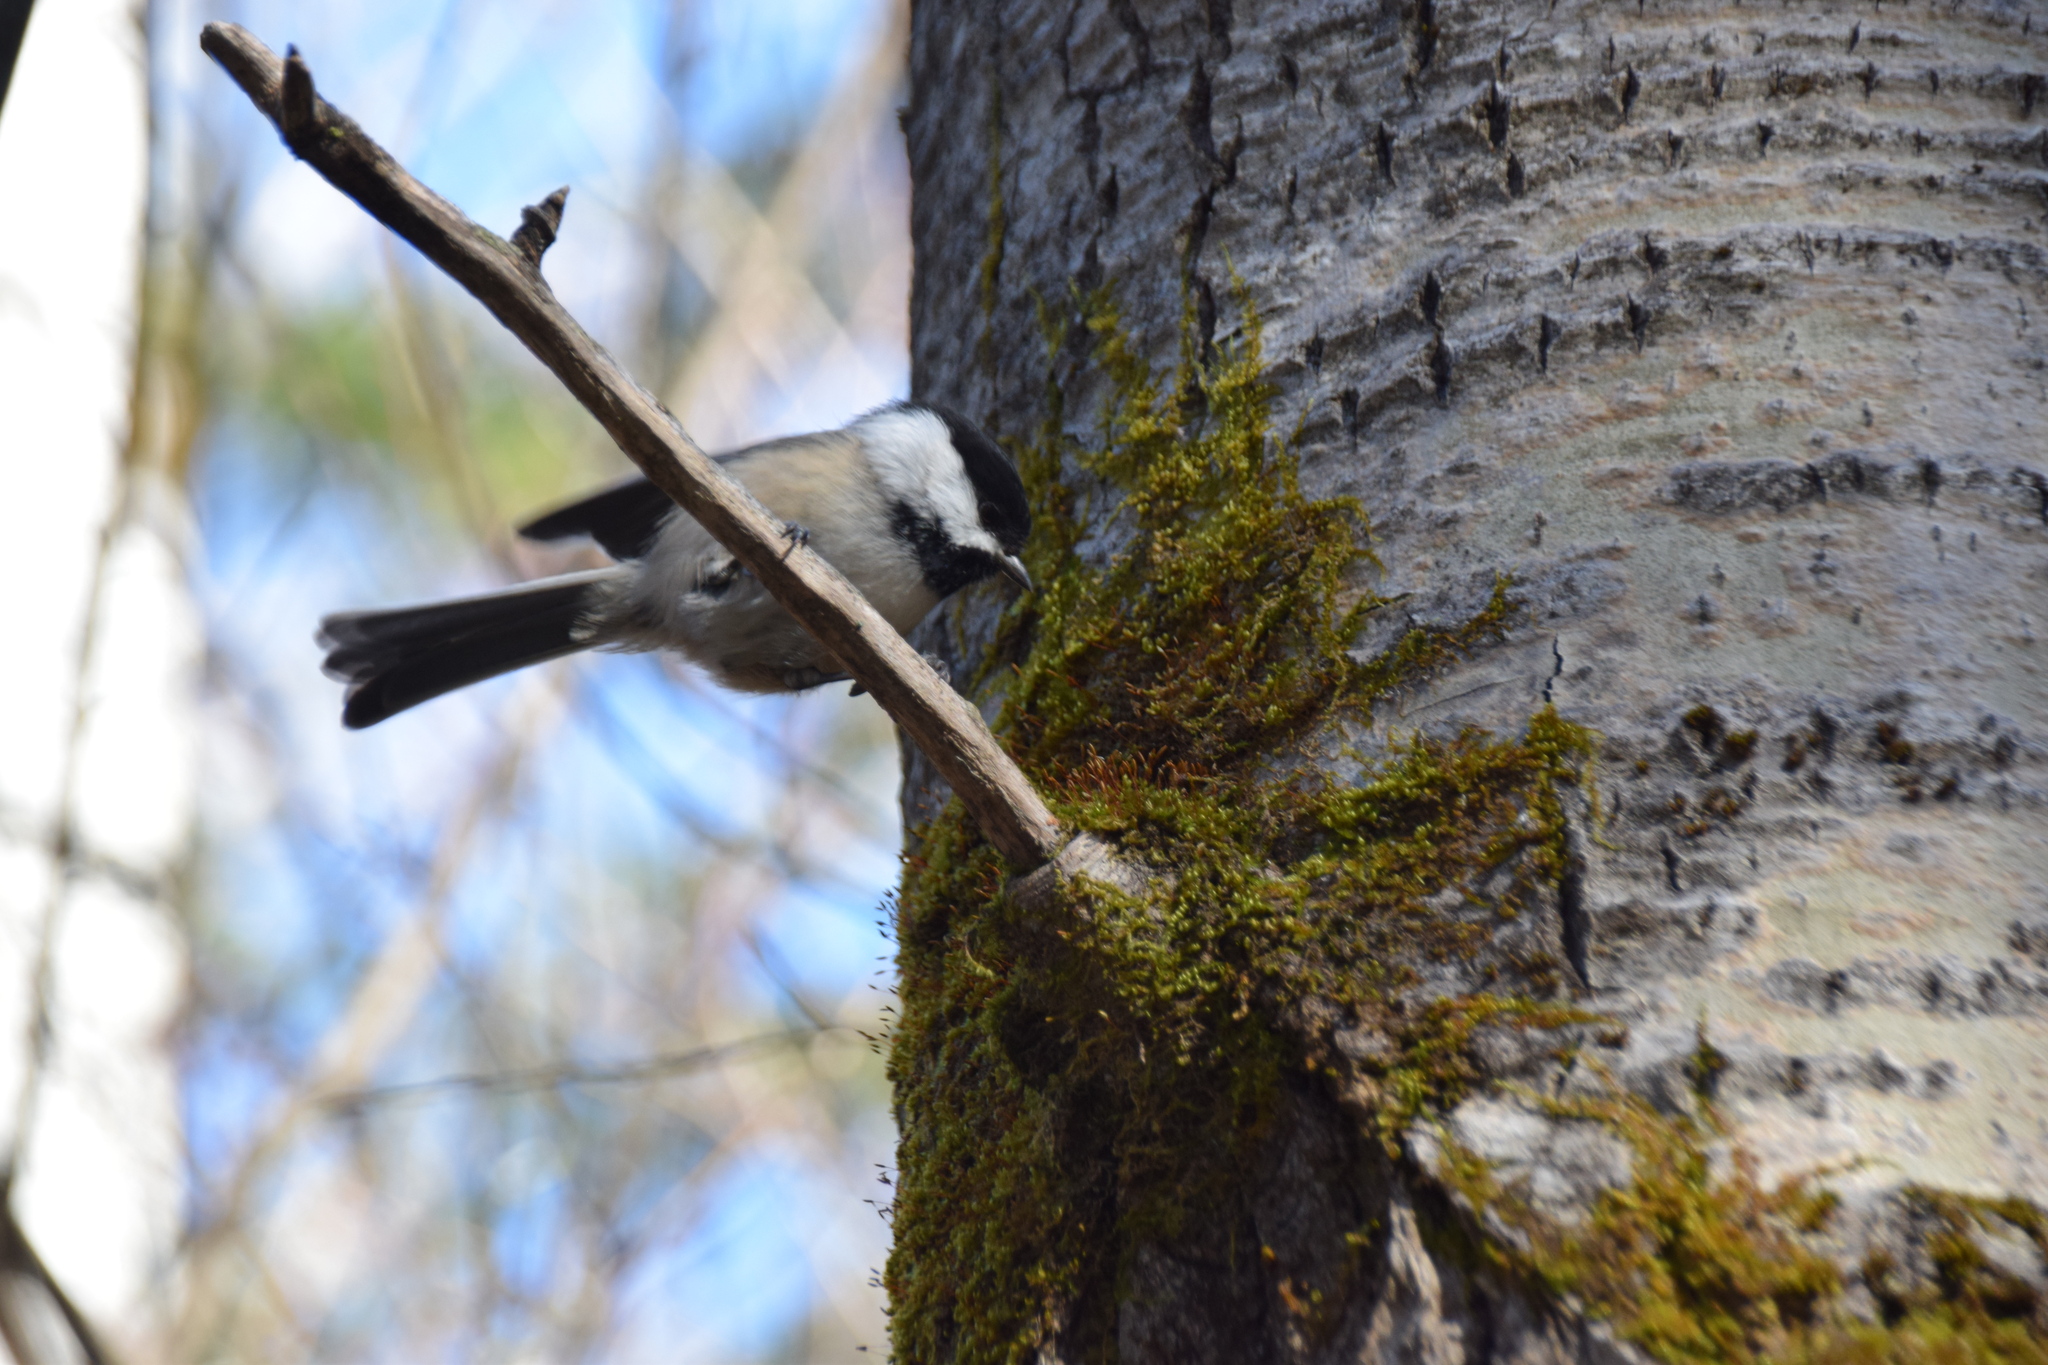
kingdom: Animalia
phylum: Chordata
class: Aves
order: Passeriformes
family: Paridae
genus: Poecile
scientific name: Poecile atricapillus
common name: Black-capped chickadee
